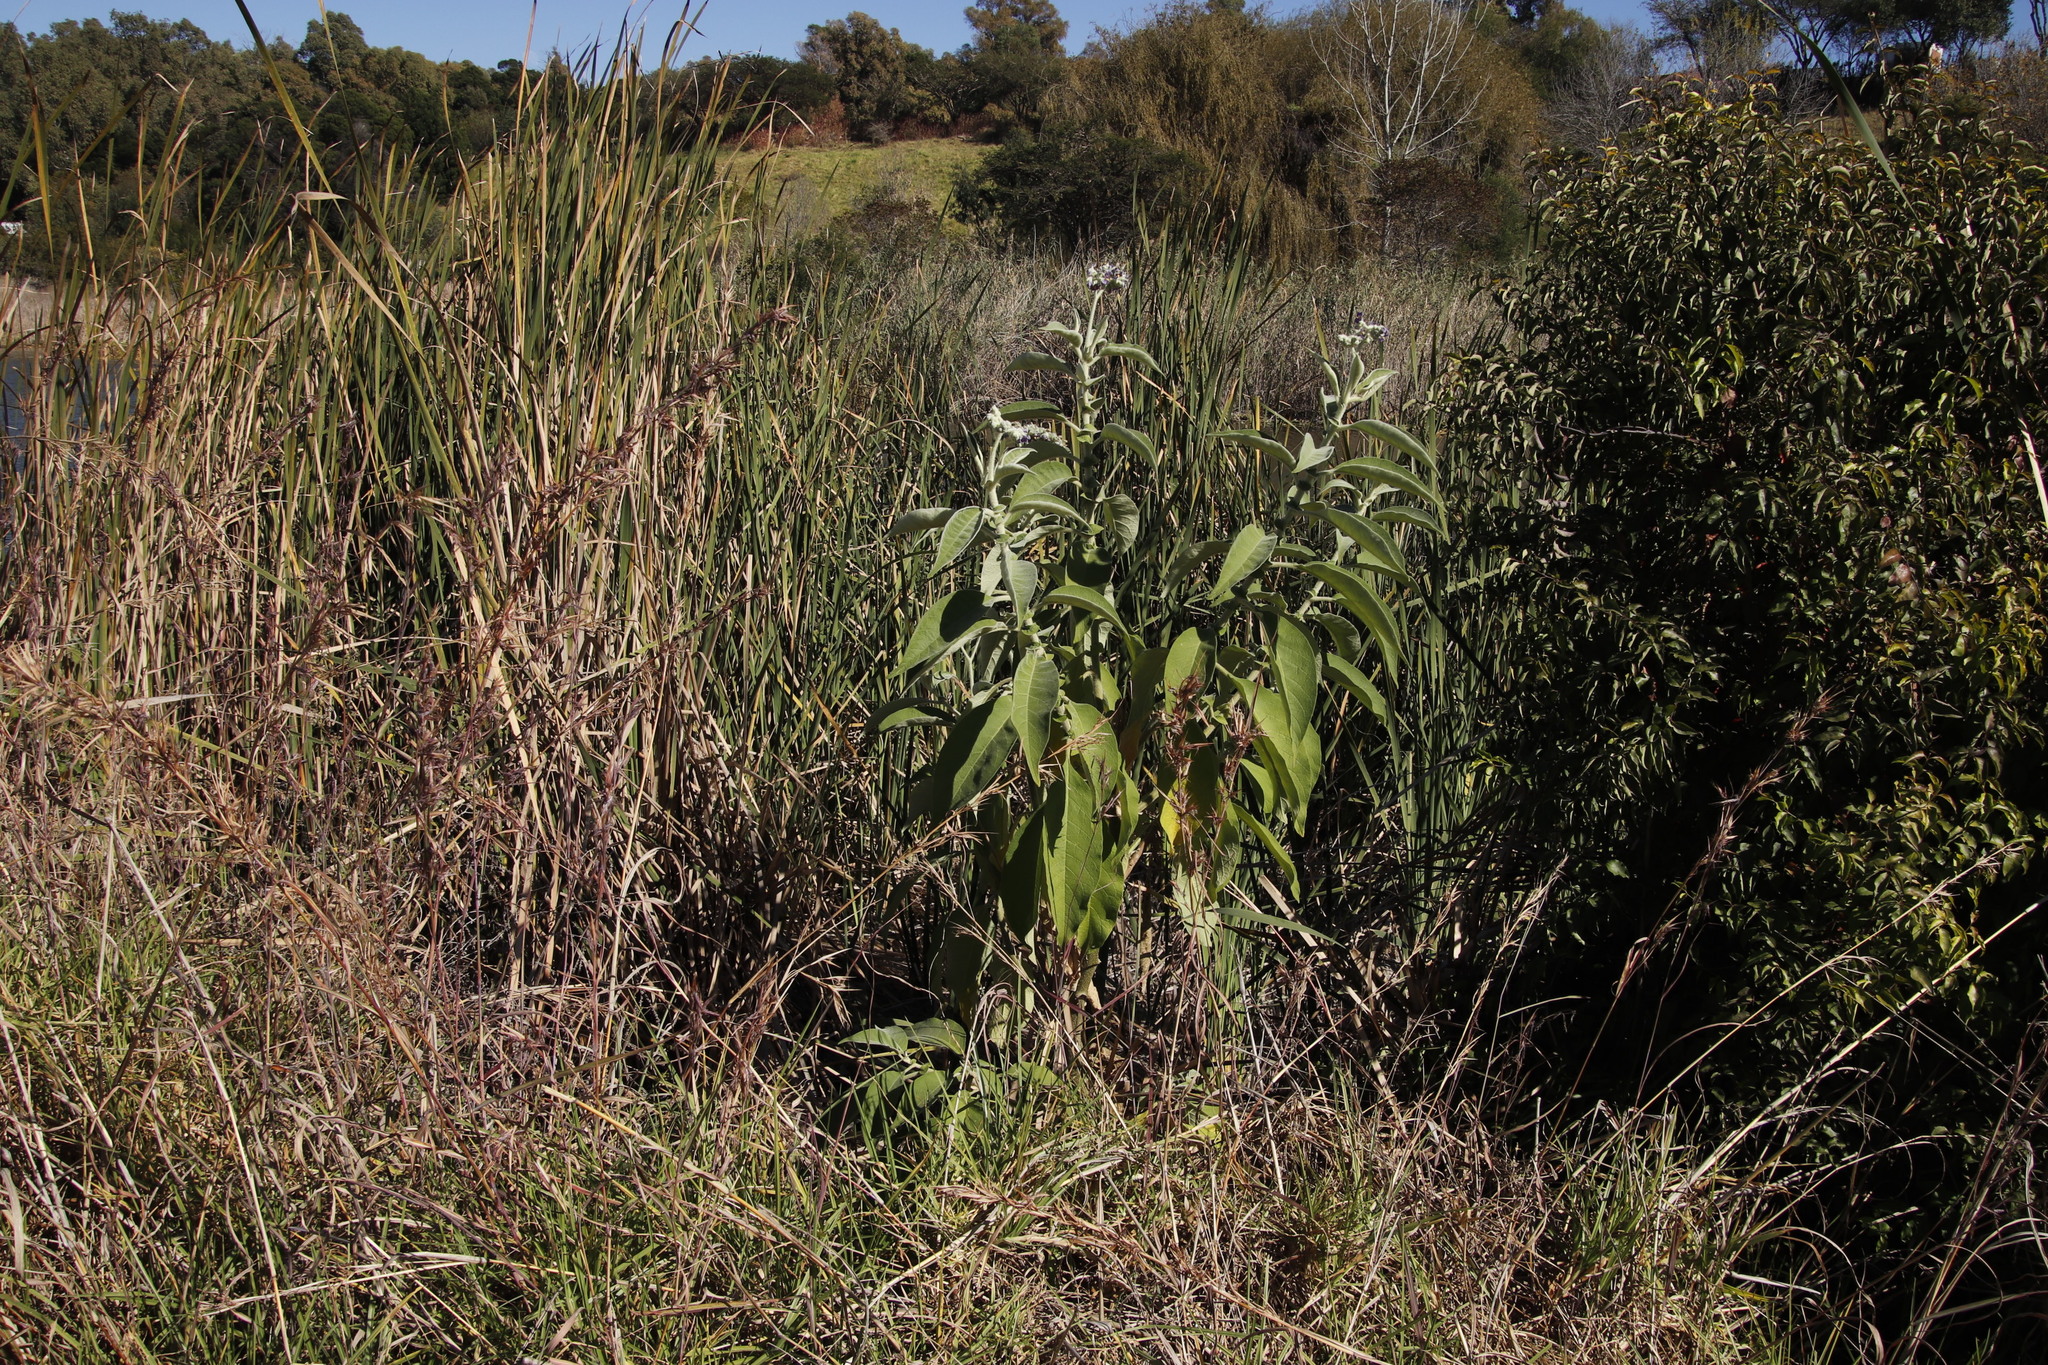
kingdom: Plantae
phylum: Tracheophyta
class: Magnoliopsida
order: Solanales
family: Solanaceae
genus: Solanum
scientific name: Solanum mauritianum
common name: Earleaf nightshade
